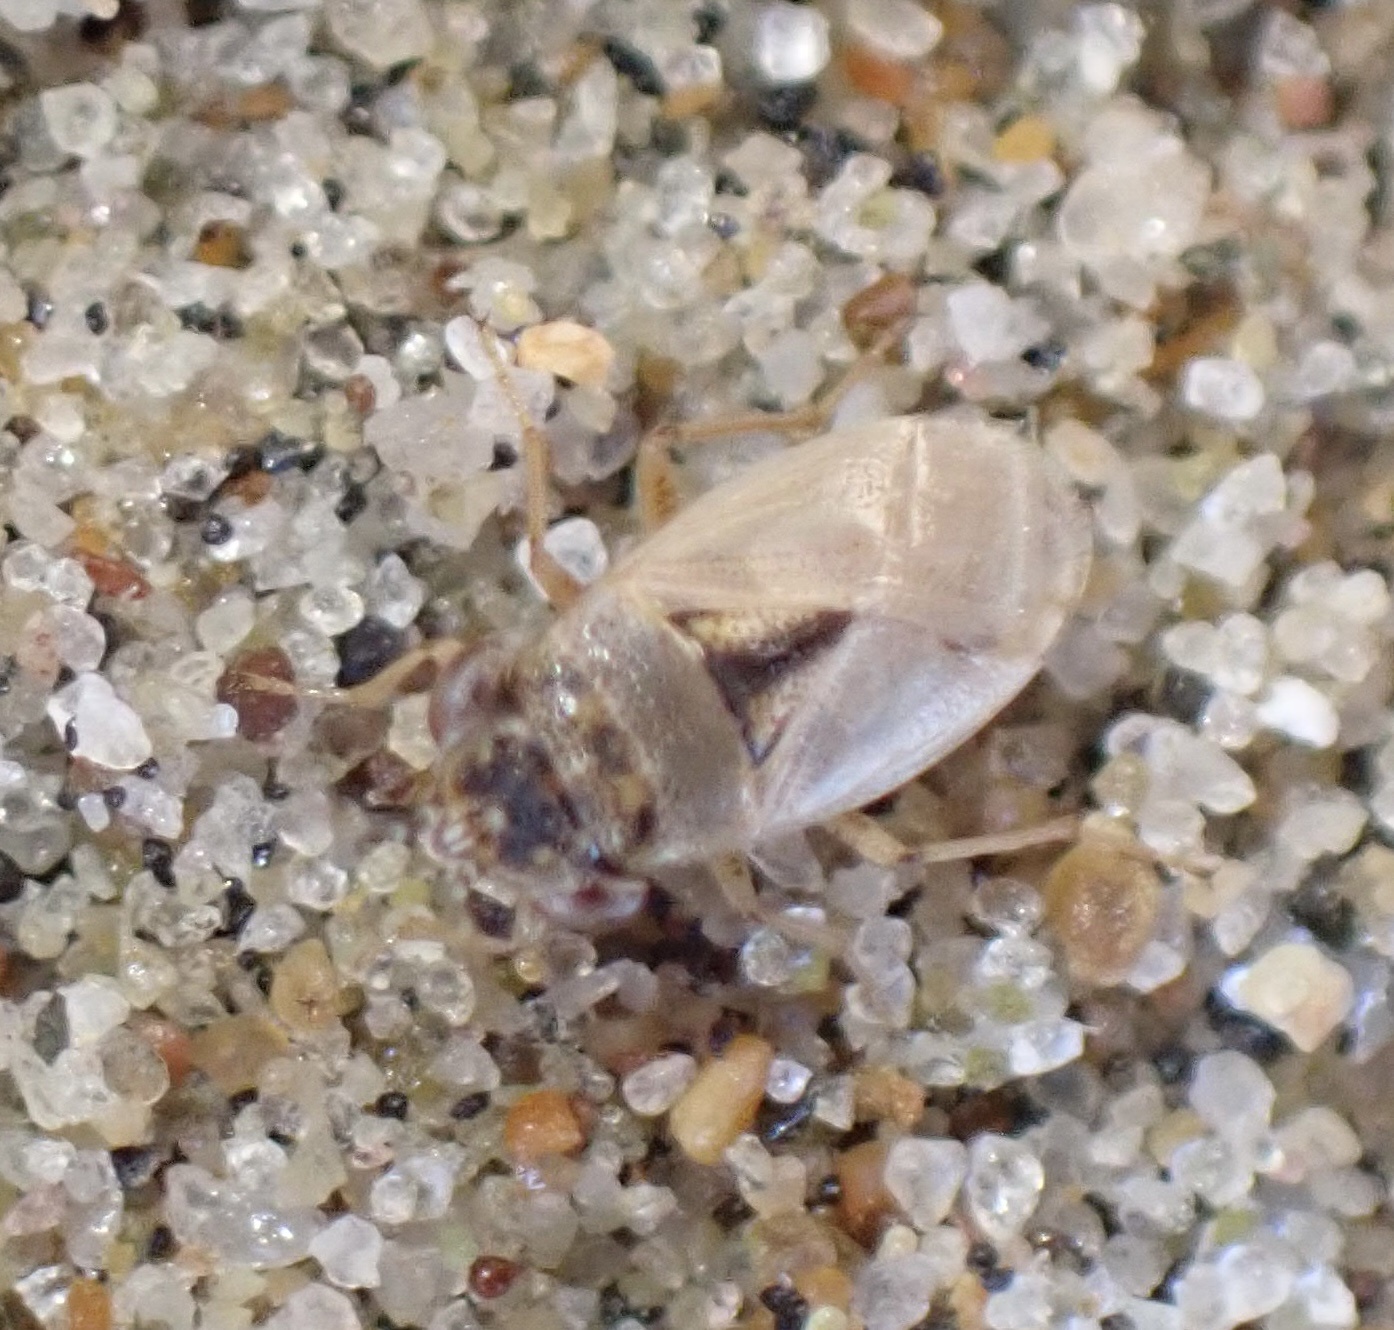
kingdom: Animalia
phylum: Arthropoda
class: Insecta
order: Hemiptera
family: Geocoridae
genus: Geocoris
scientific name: Geocoris pallens
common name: Big-eyed bug
